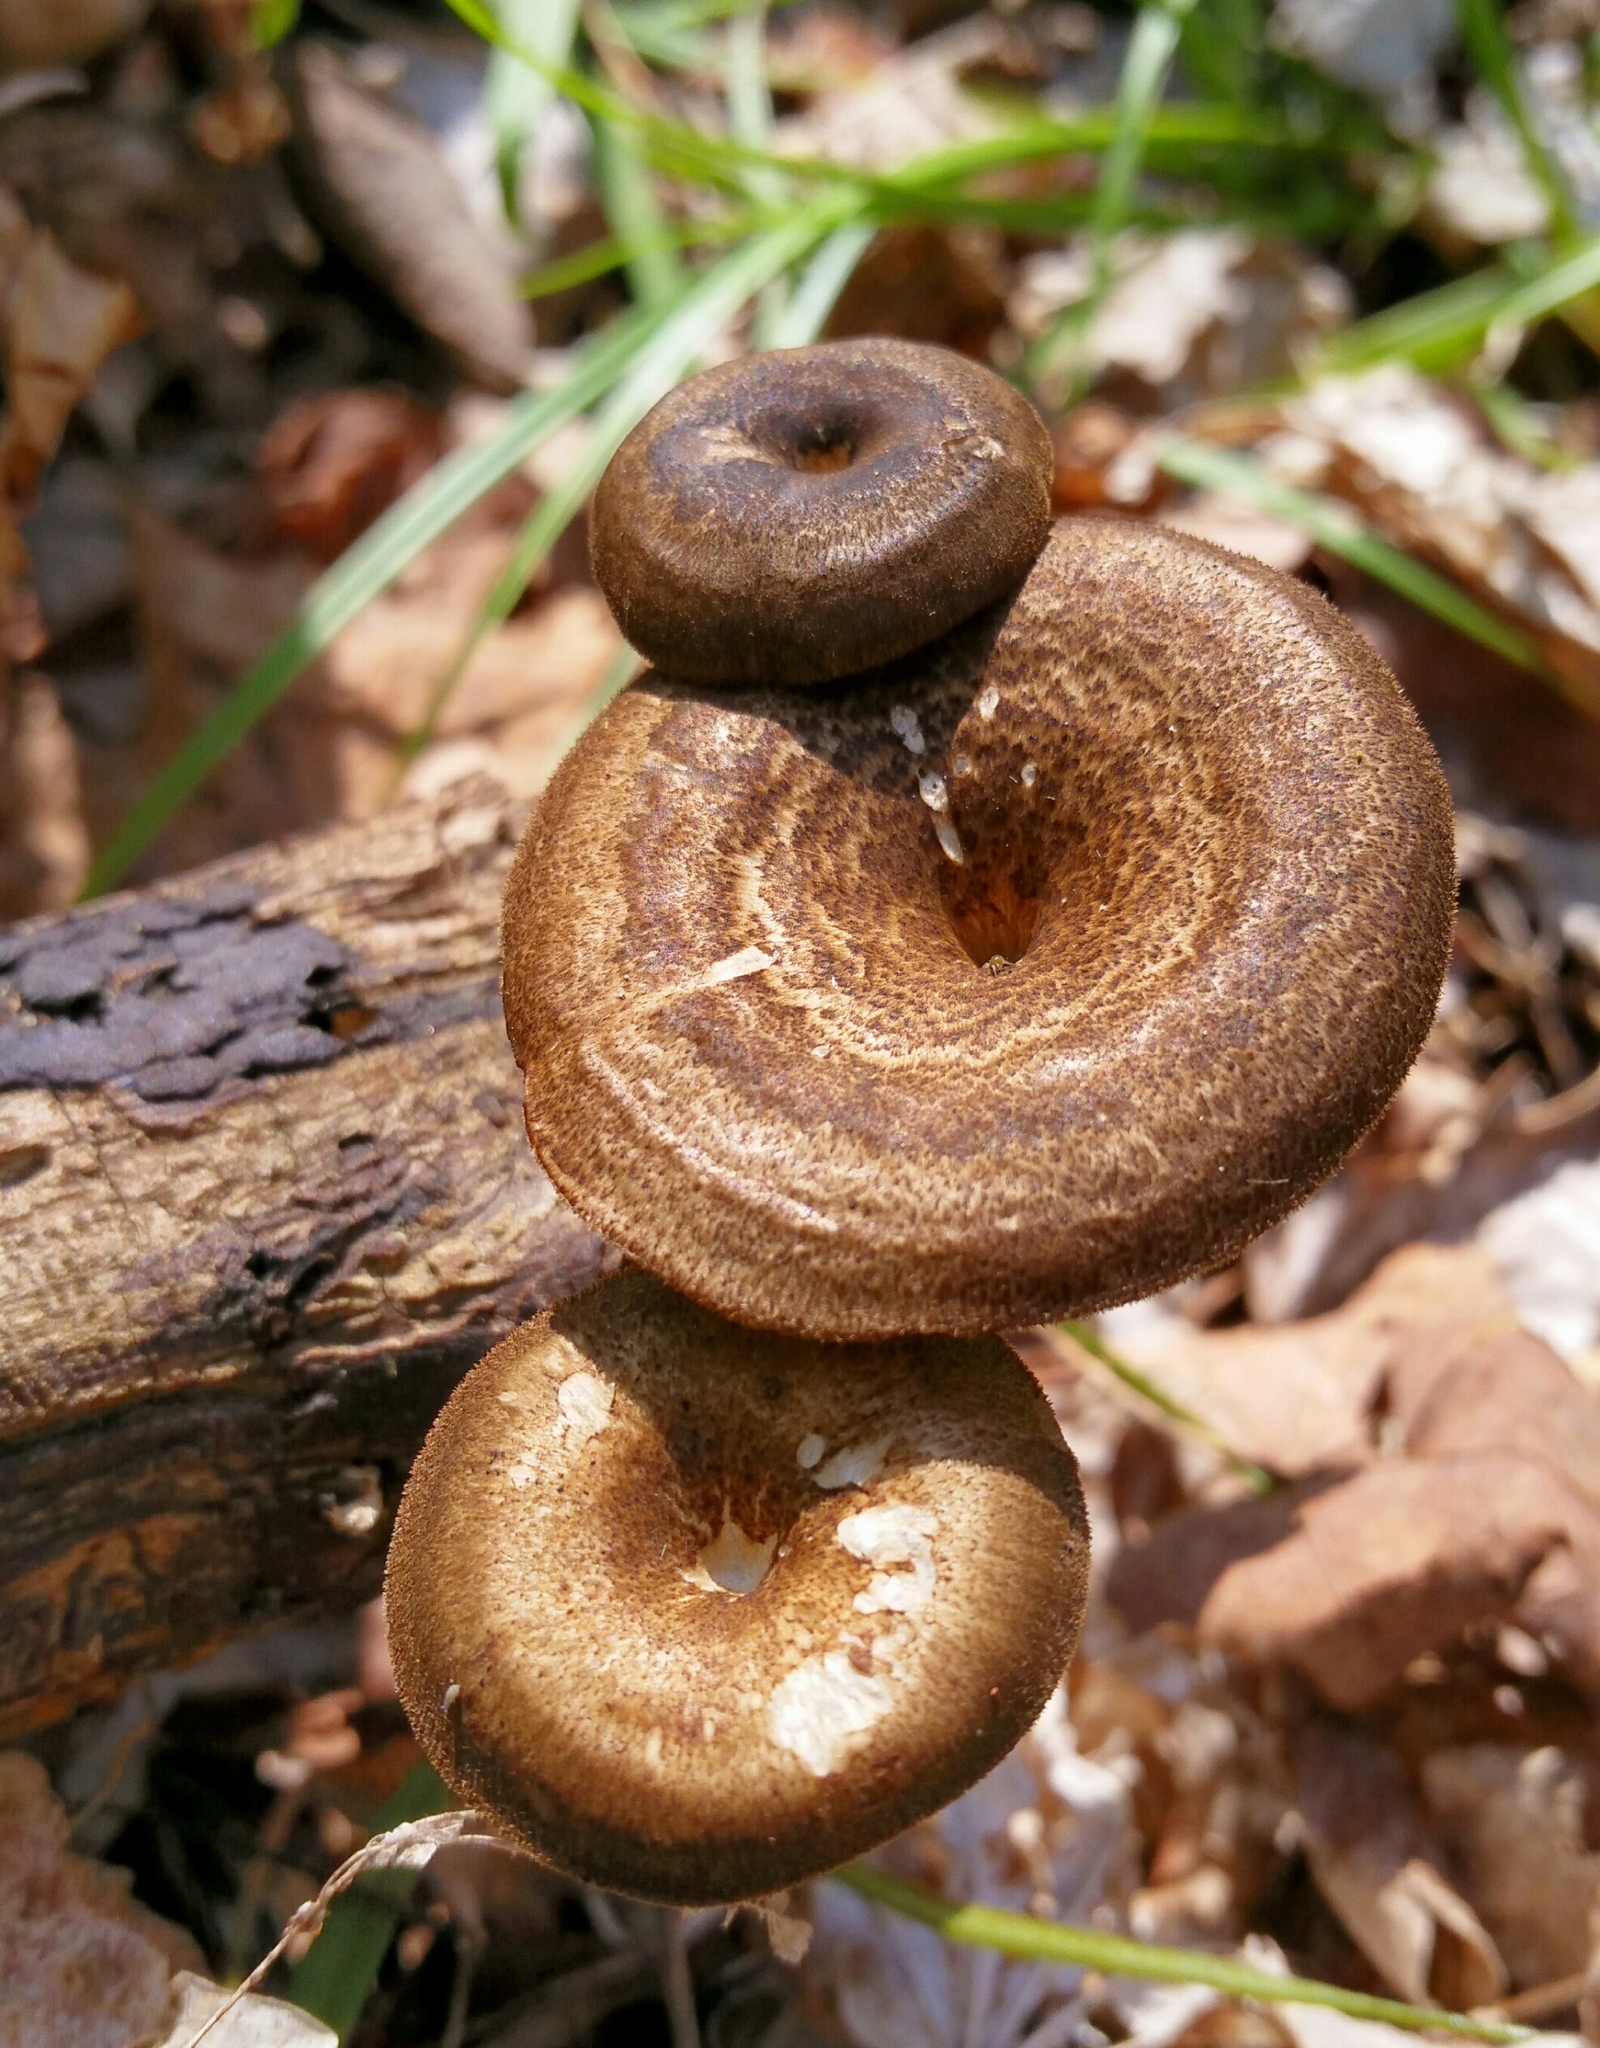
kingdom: Fungi
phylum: Basidiomycota
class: Agaricomycetes
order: Polyporales
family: Polyporaceae
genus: Lentinus
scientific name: Lentinus arcularius
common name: Spring polypore
